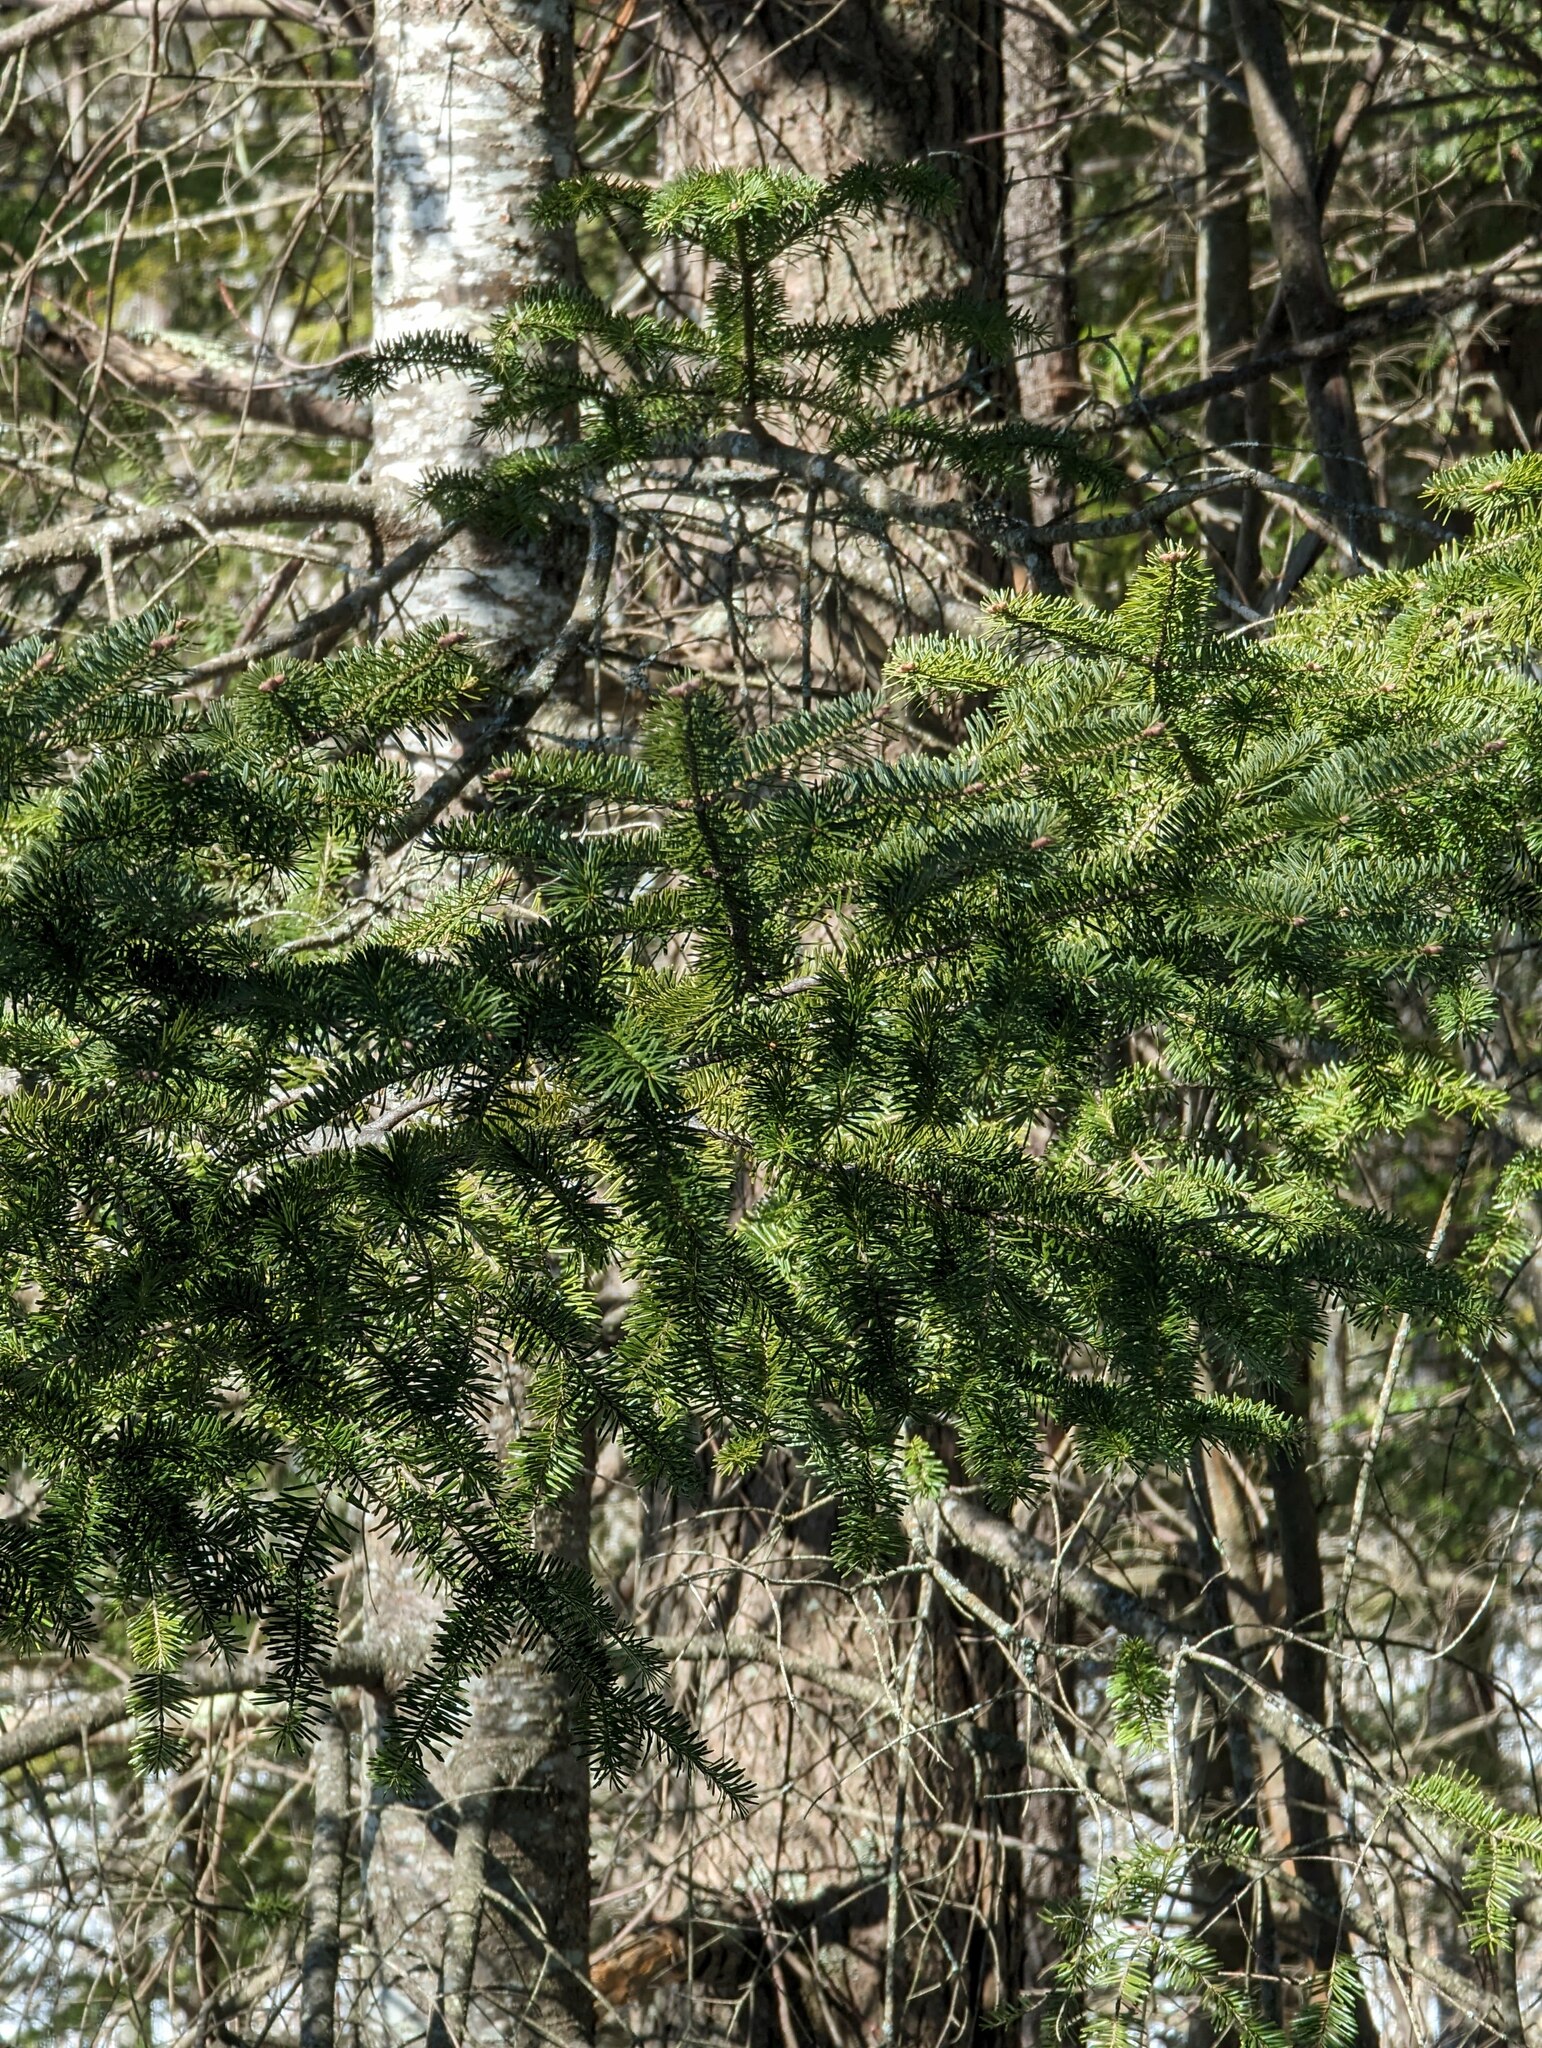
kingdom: Plantae
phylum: Tracheophyta
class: Pinopsida
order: Pinales
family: Pinaceae
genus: Abies
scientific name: Abies balsamea
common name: Balsam fir
